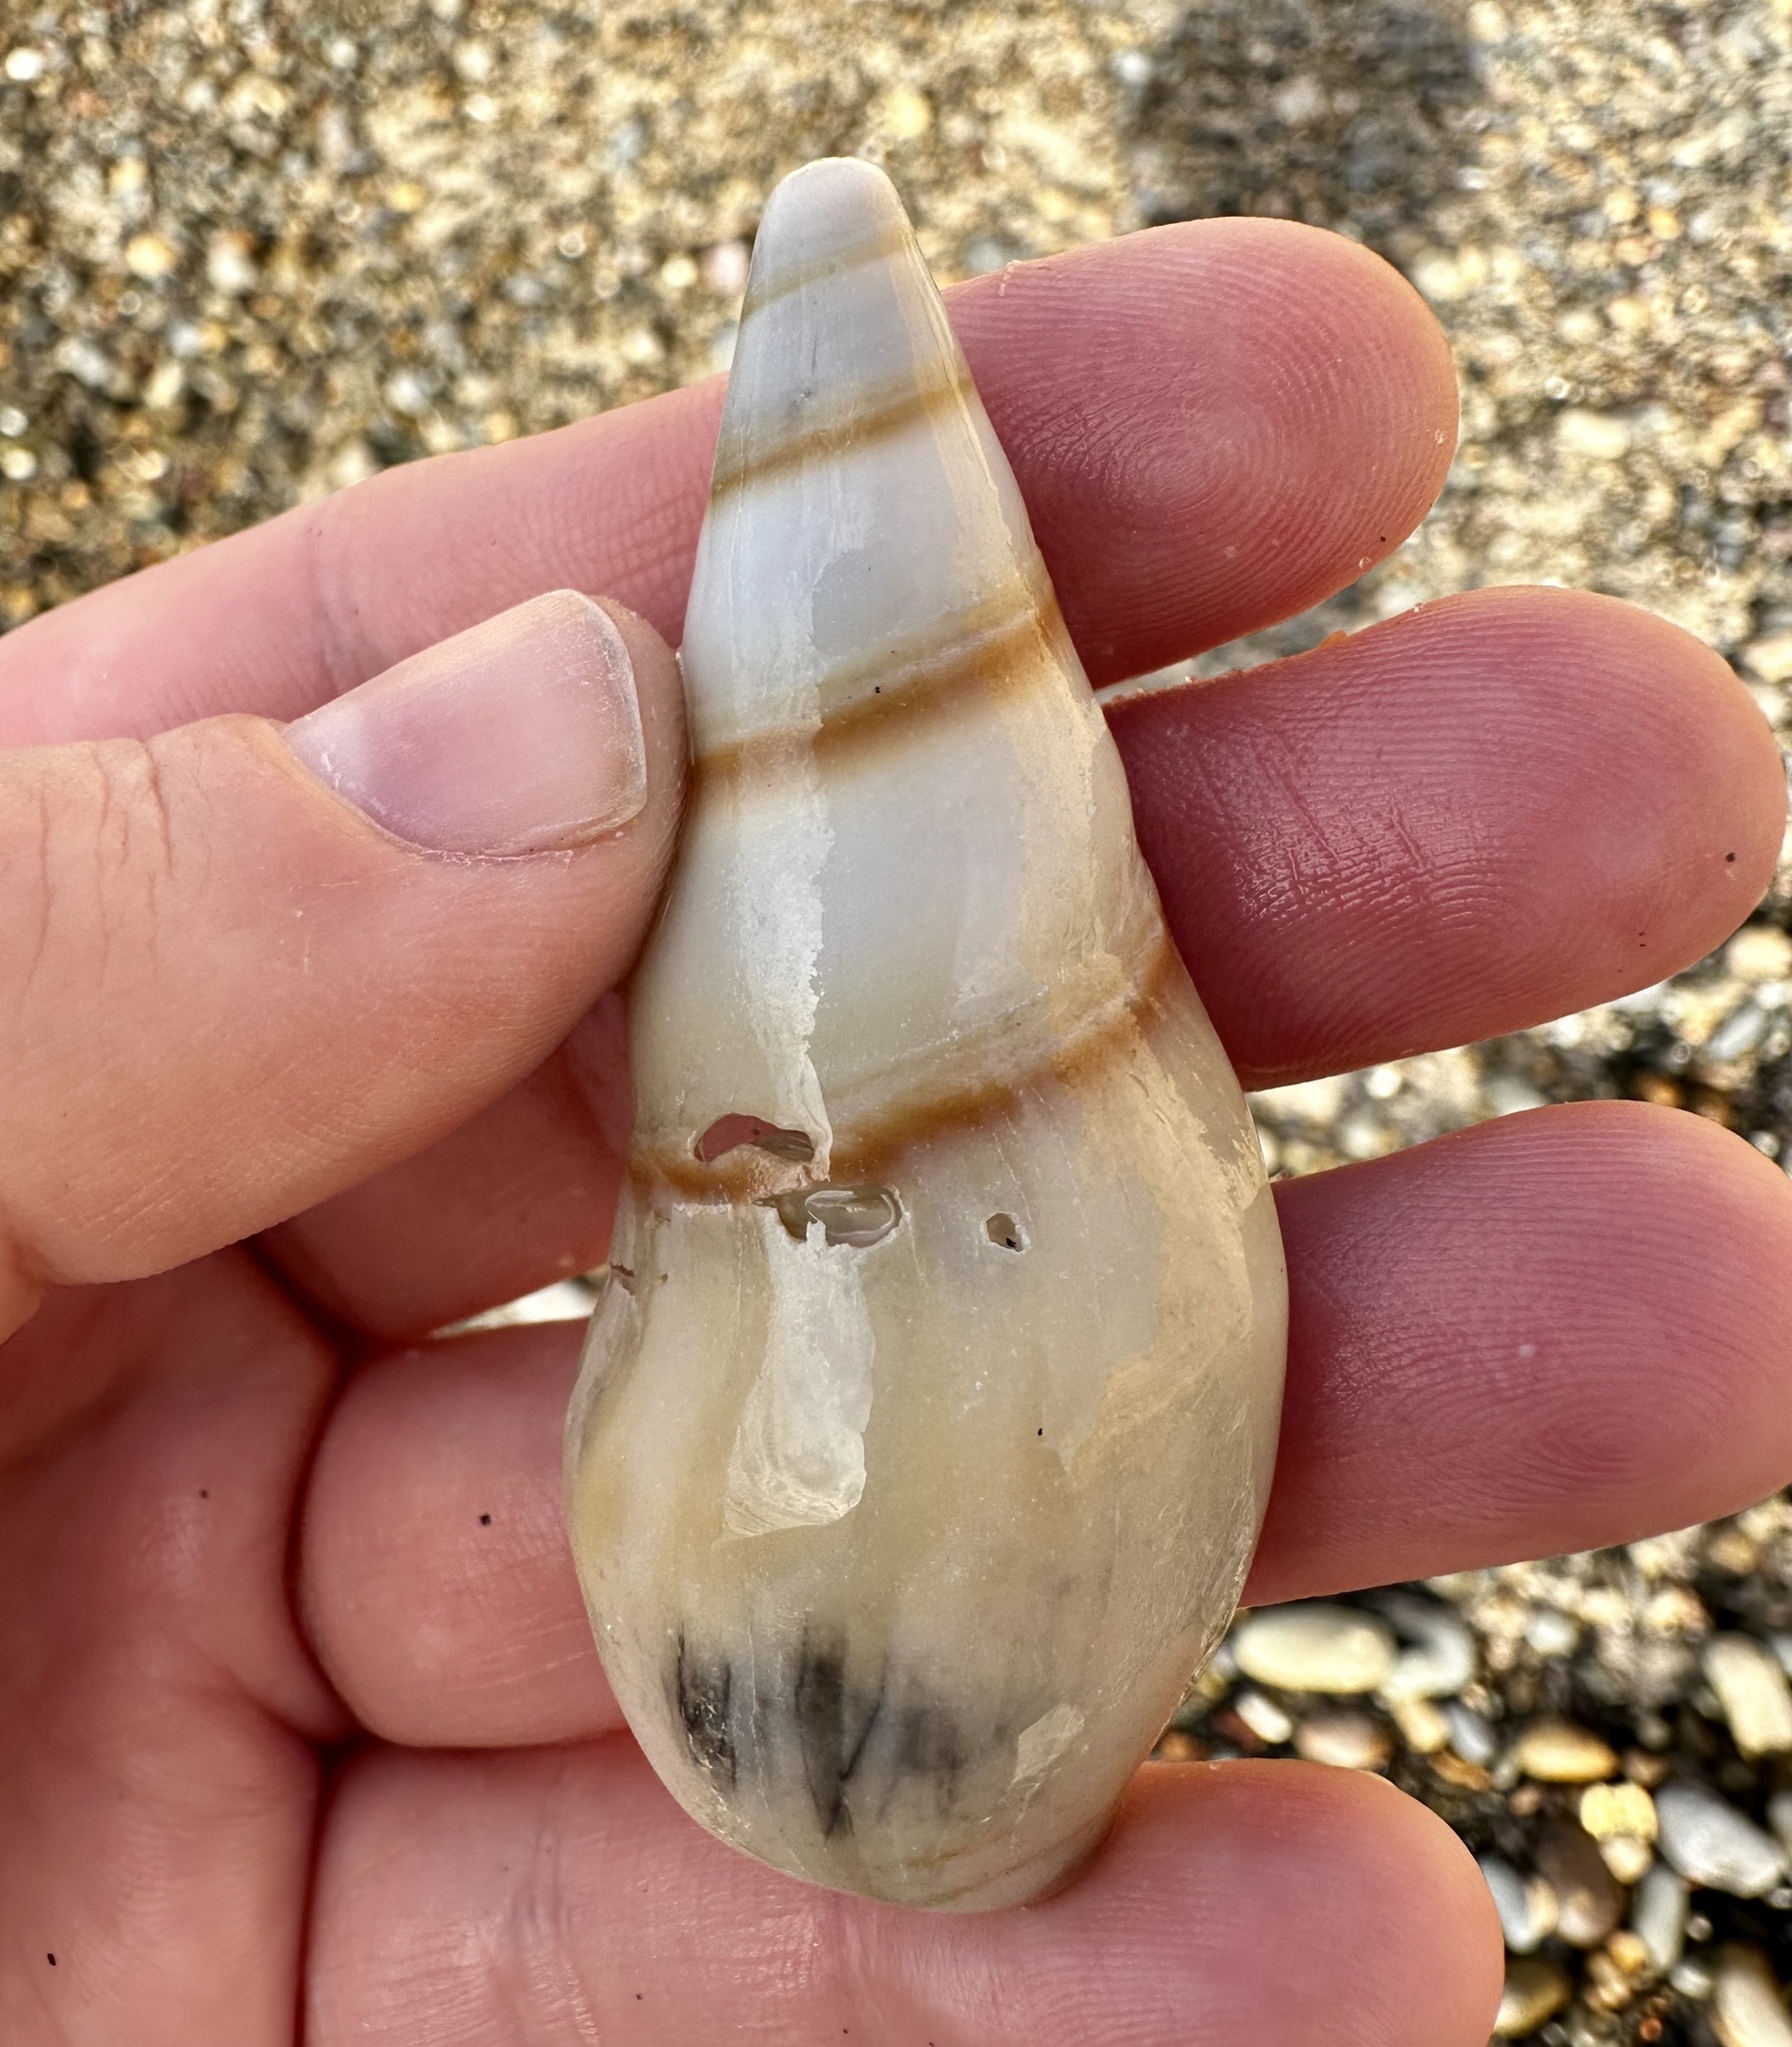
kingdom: Animalia
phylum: Mollusca
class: Gastropoda
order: Neogastropoda
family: Pseudomelatomidae
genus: Megasurcula
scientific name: Megasurcula carpenteriana
